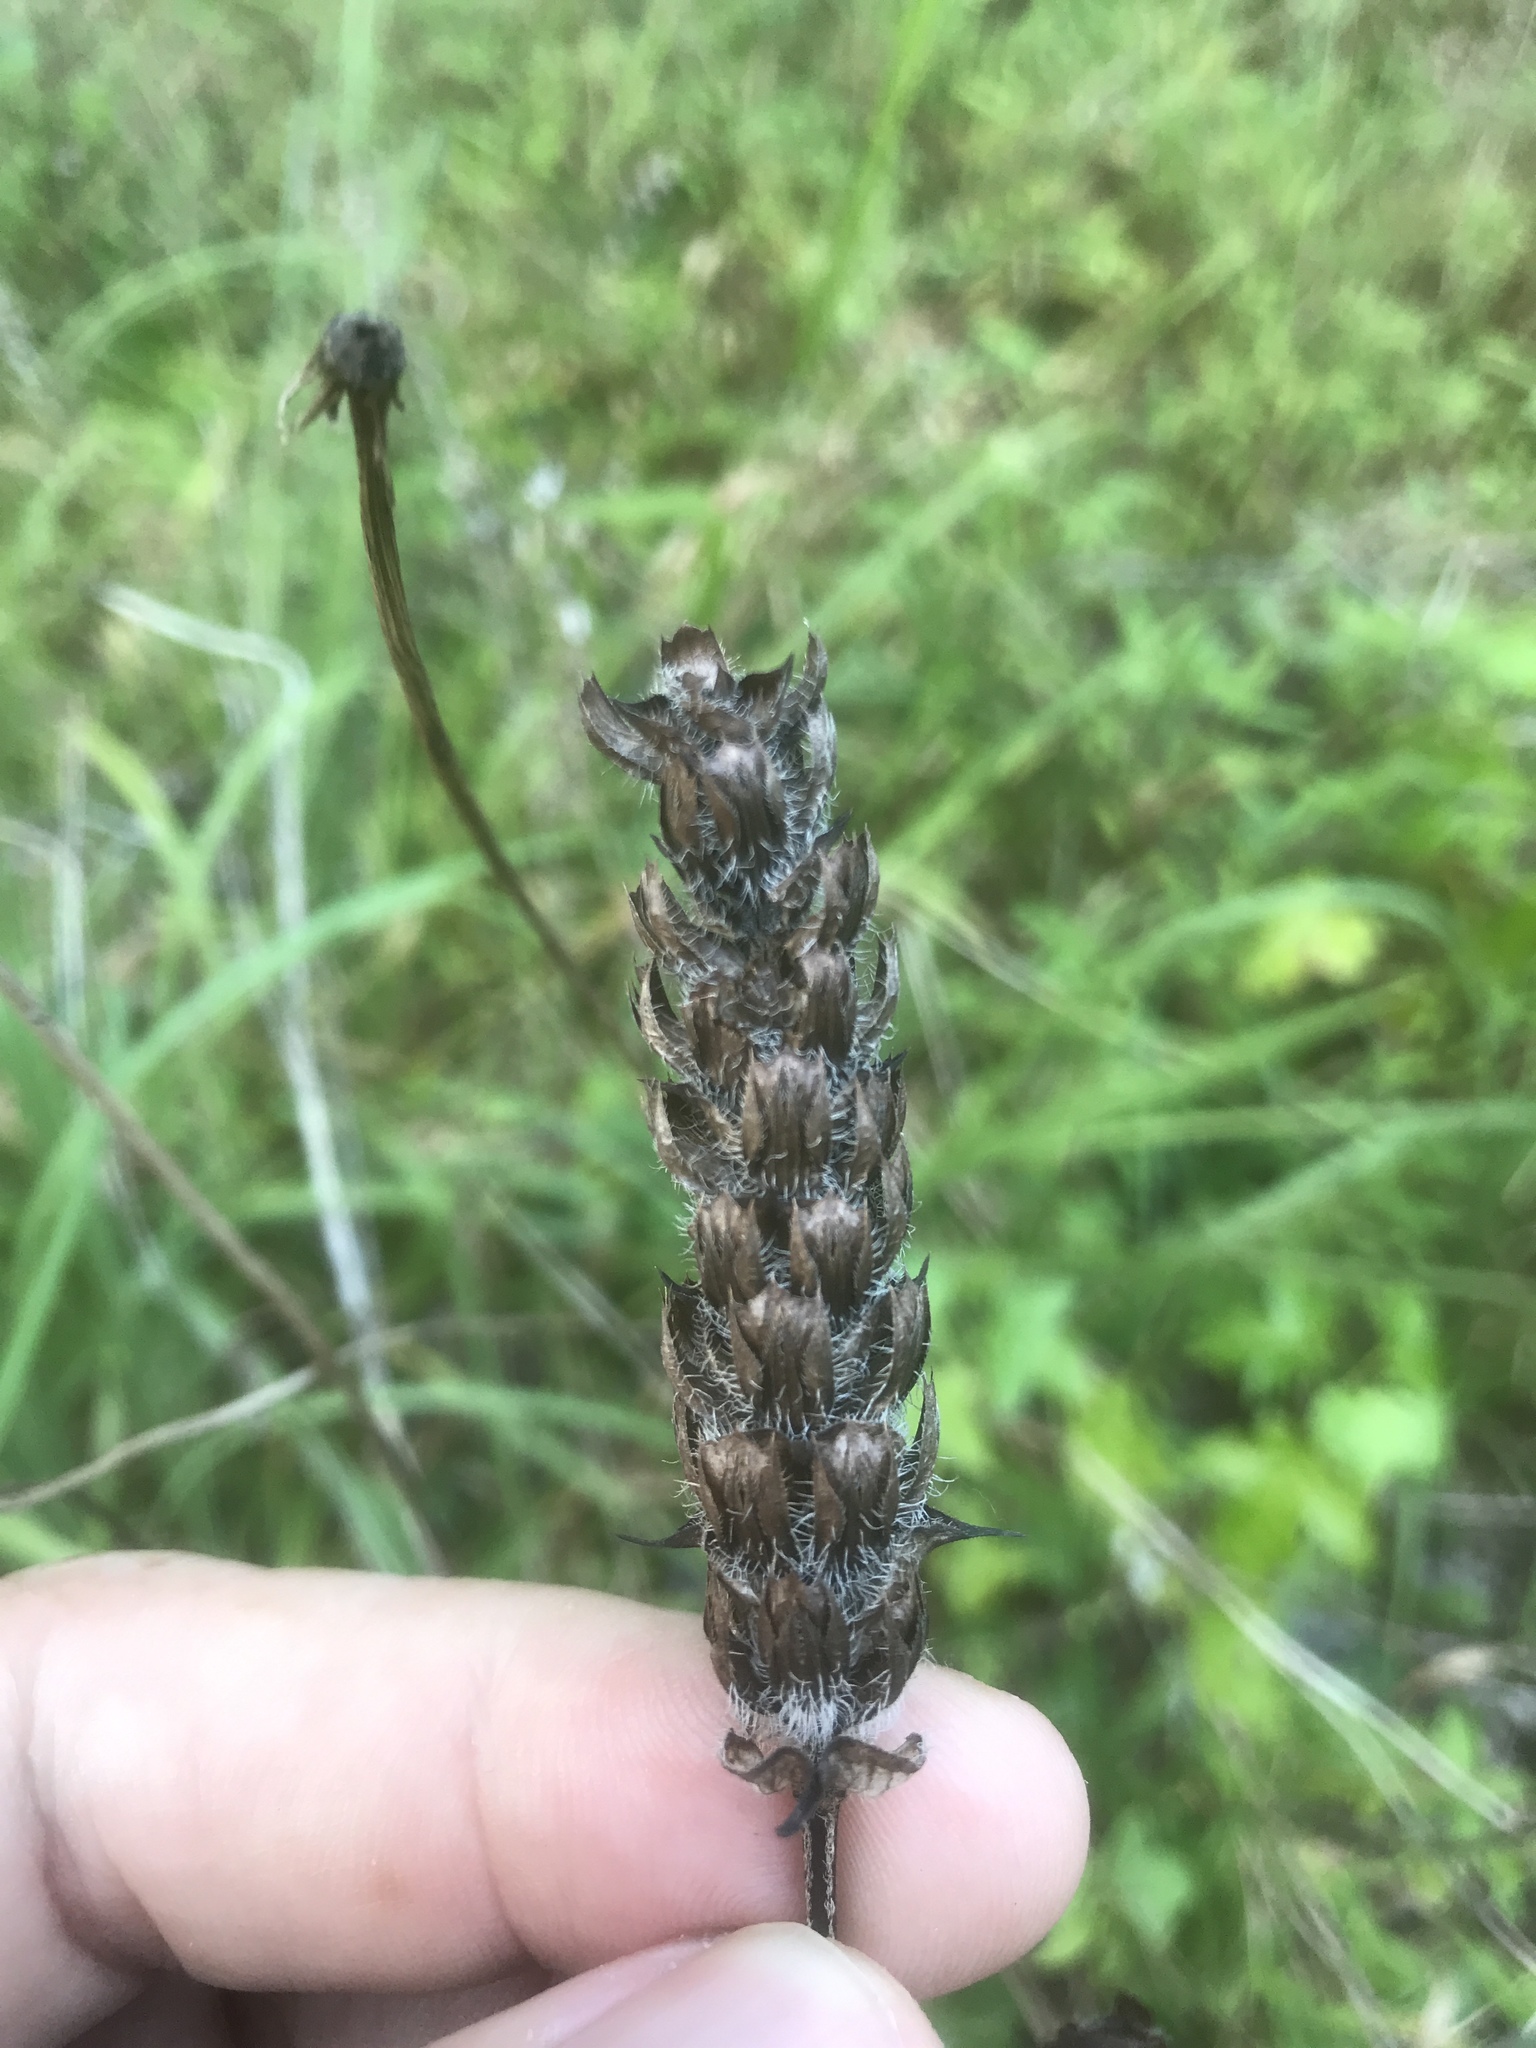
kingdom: Plantae
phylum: Tracheophyta
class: Magnoliopsida
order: Lamiales
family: Lamiaceae
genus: Prunella
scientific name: Prunella vulgaris
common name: Heal-all
